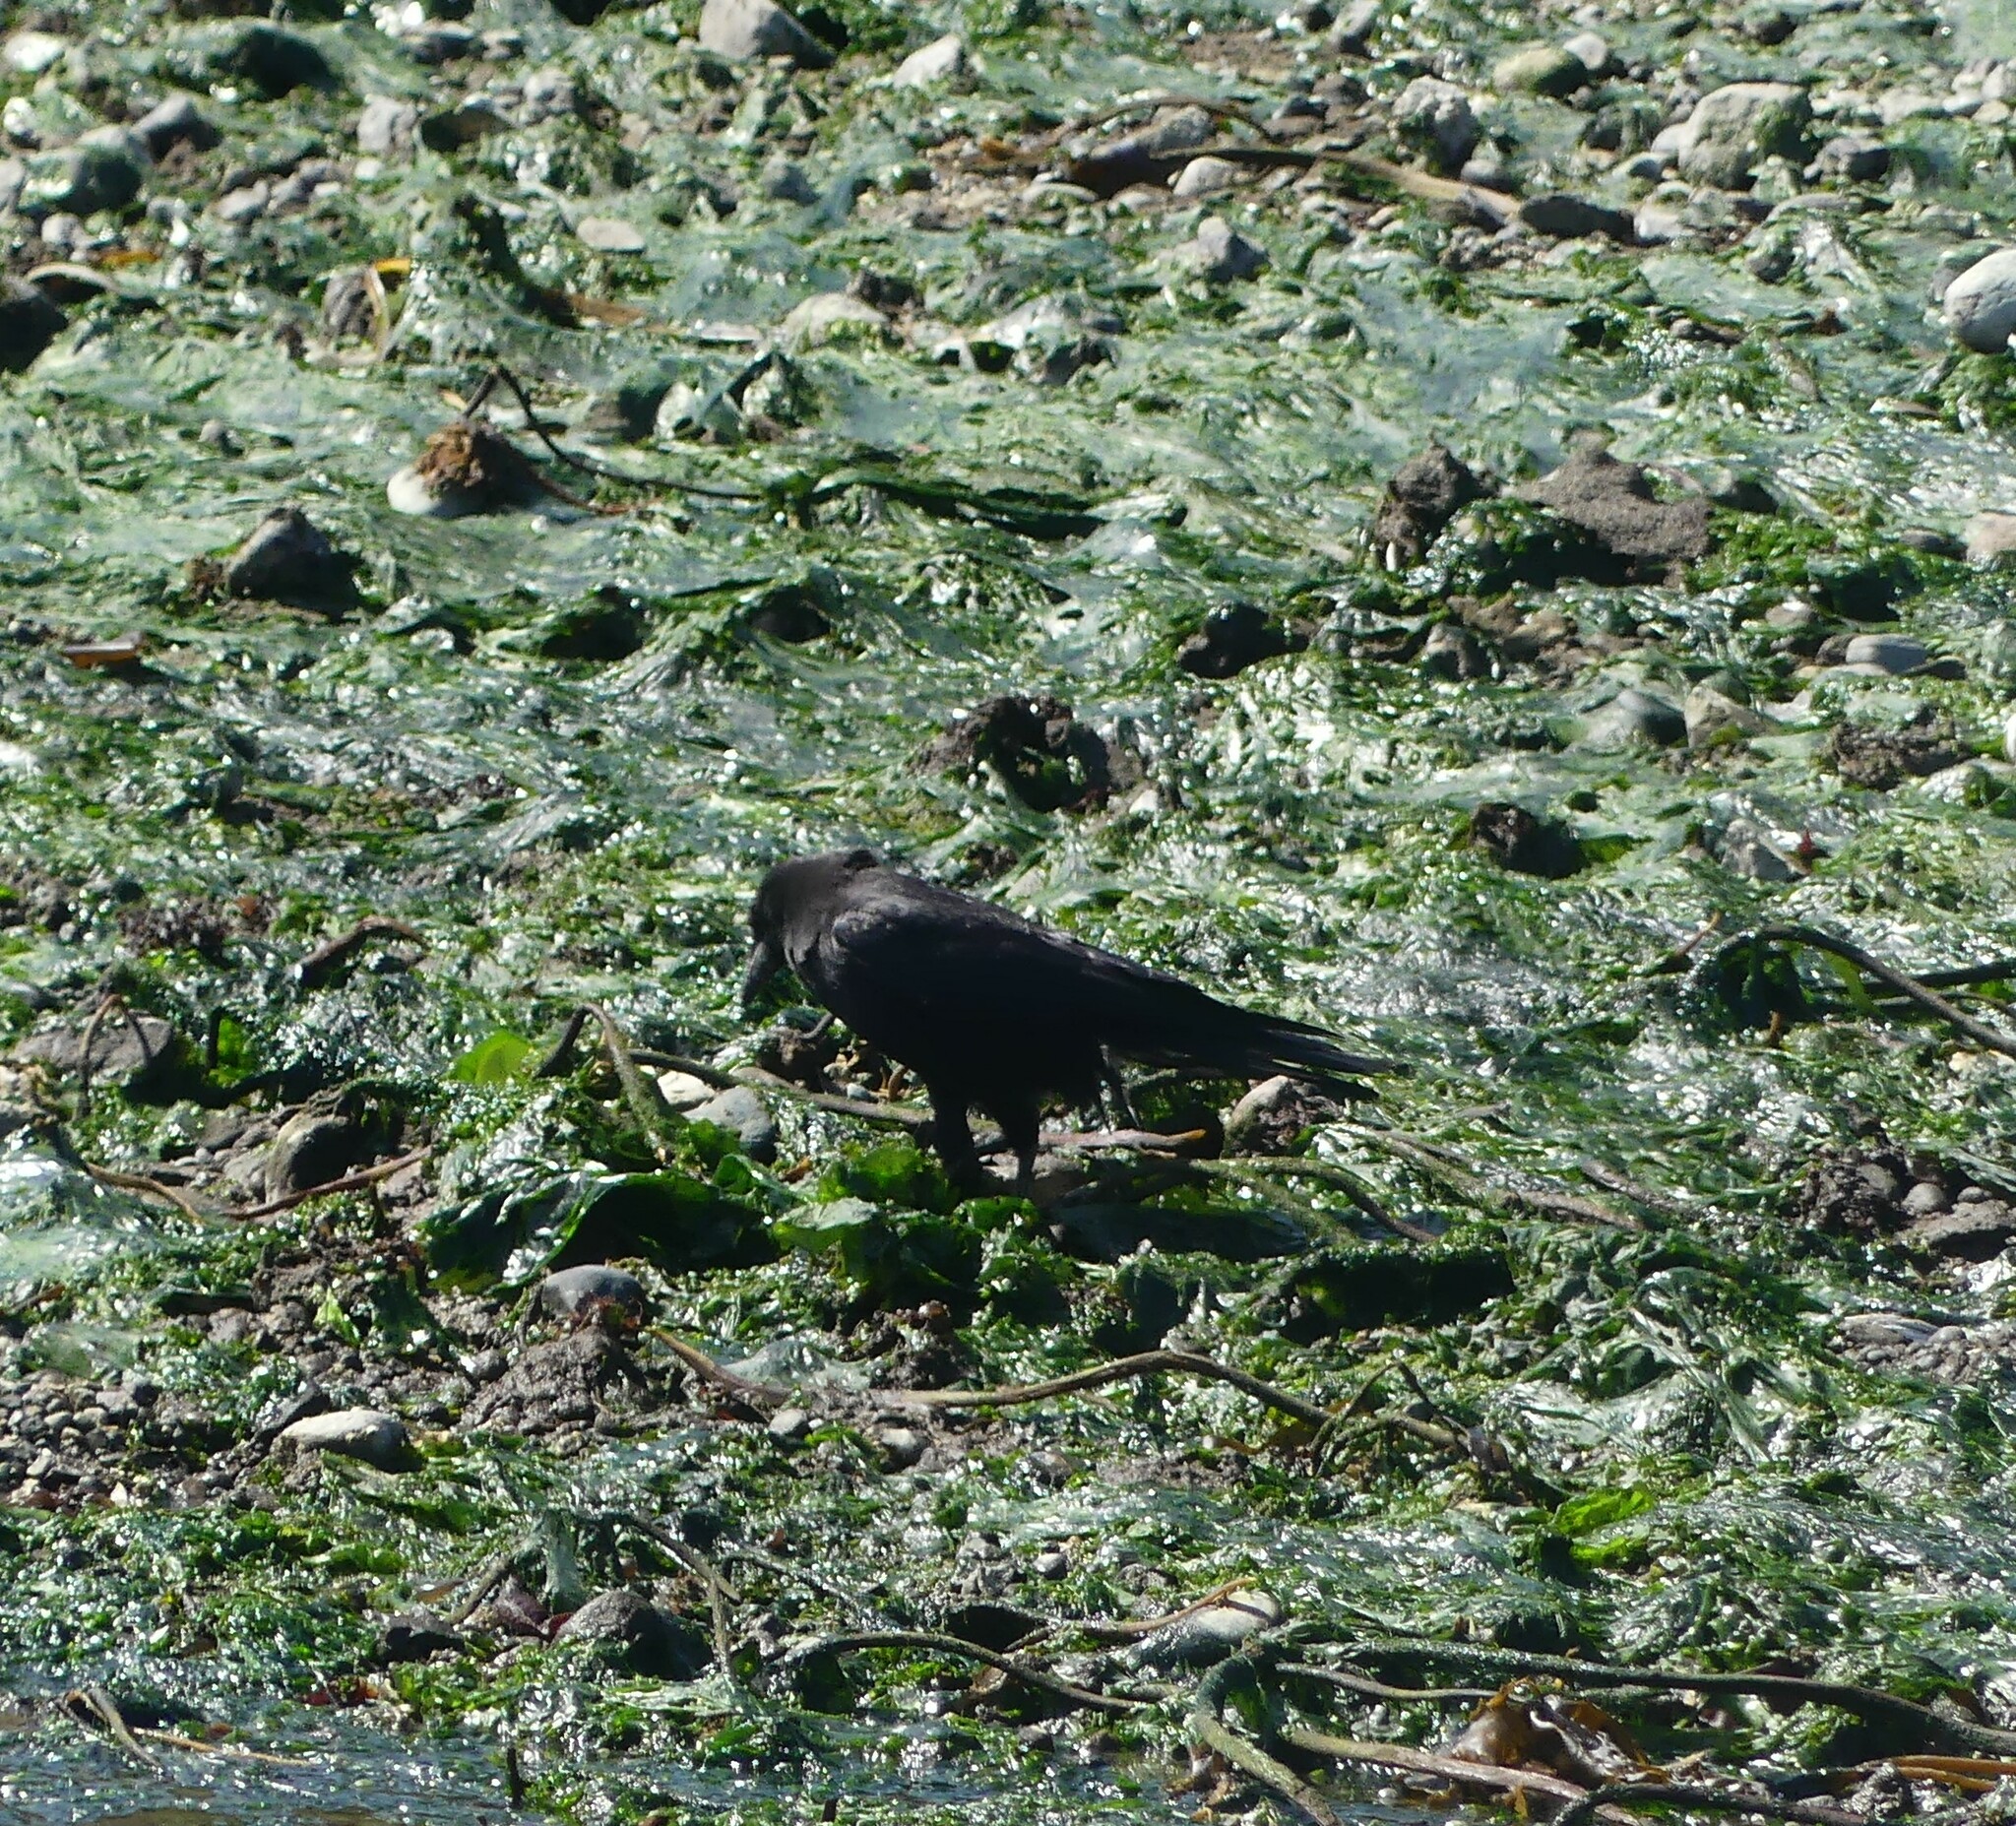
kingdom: Animalia
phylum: Chordata
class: Aves
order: Passeriformes
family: Corvidae
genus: Corvus
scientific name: Corvus brachyrhynchos
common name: American crow
